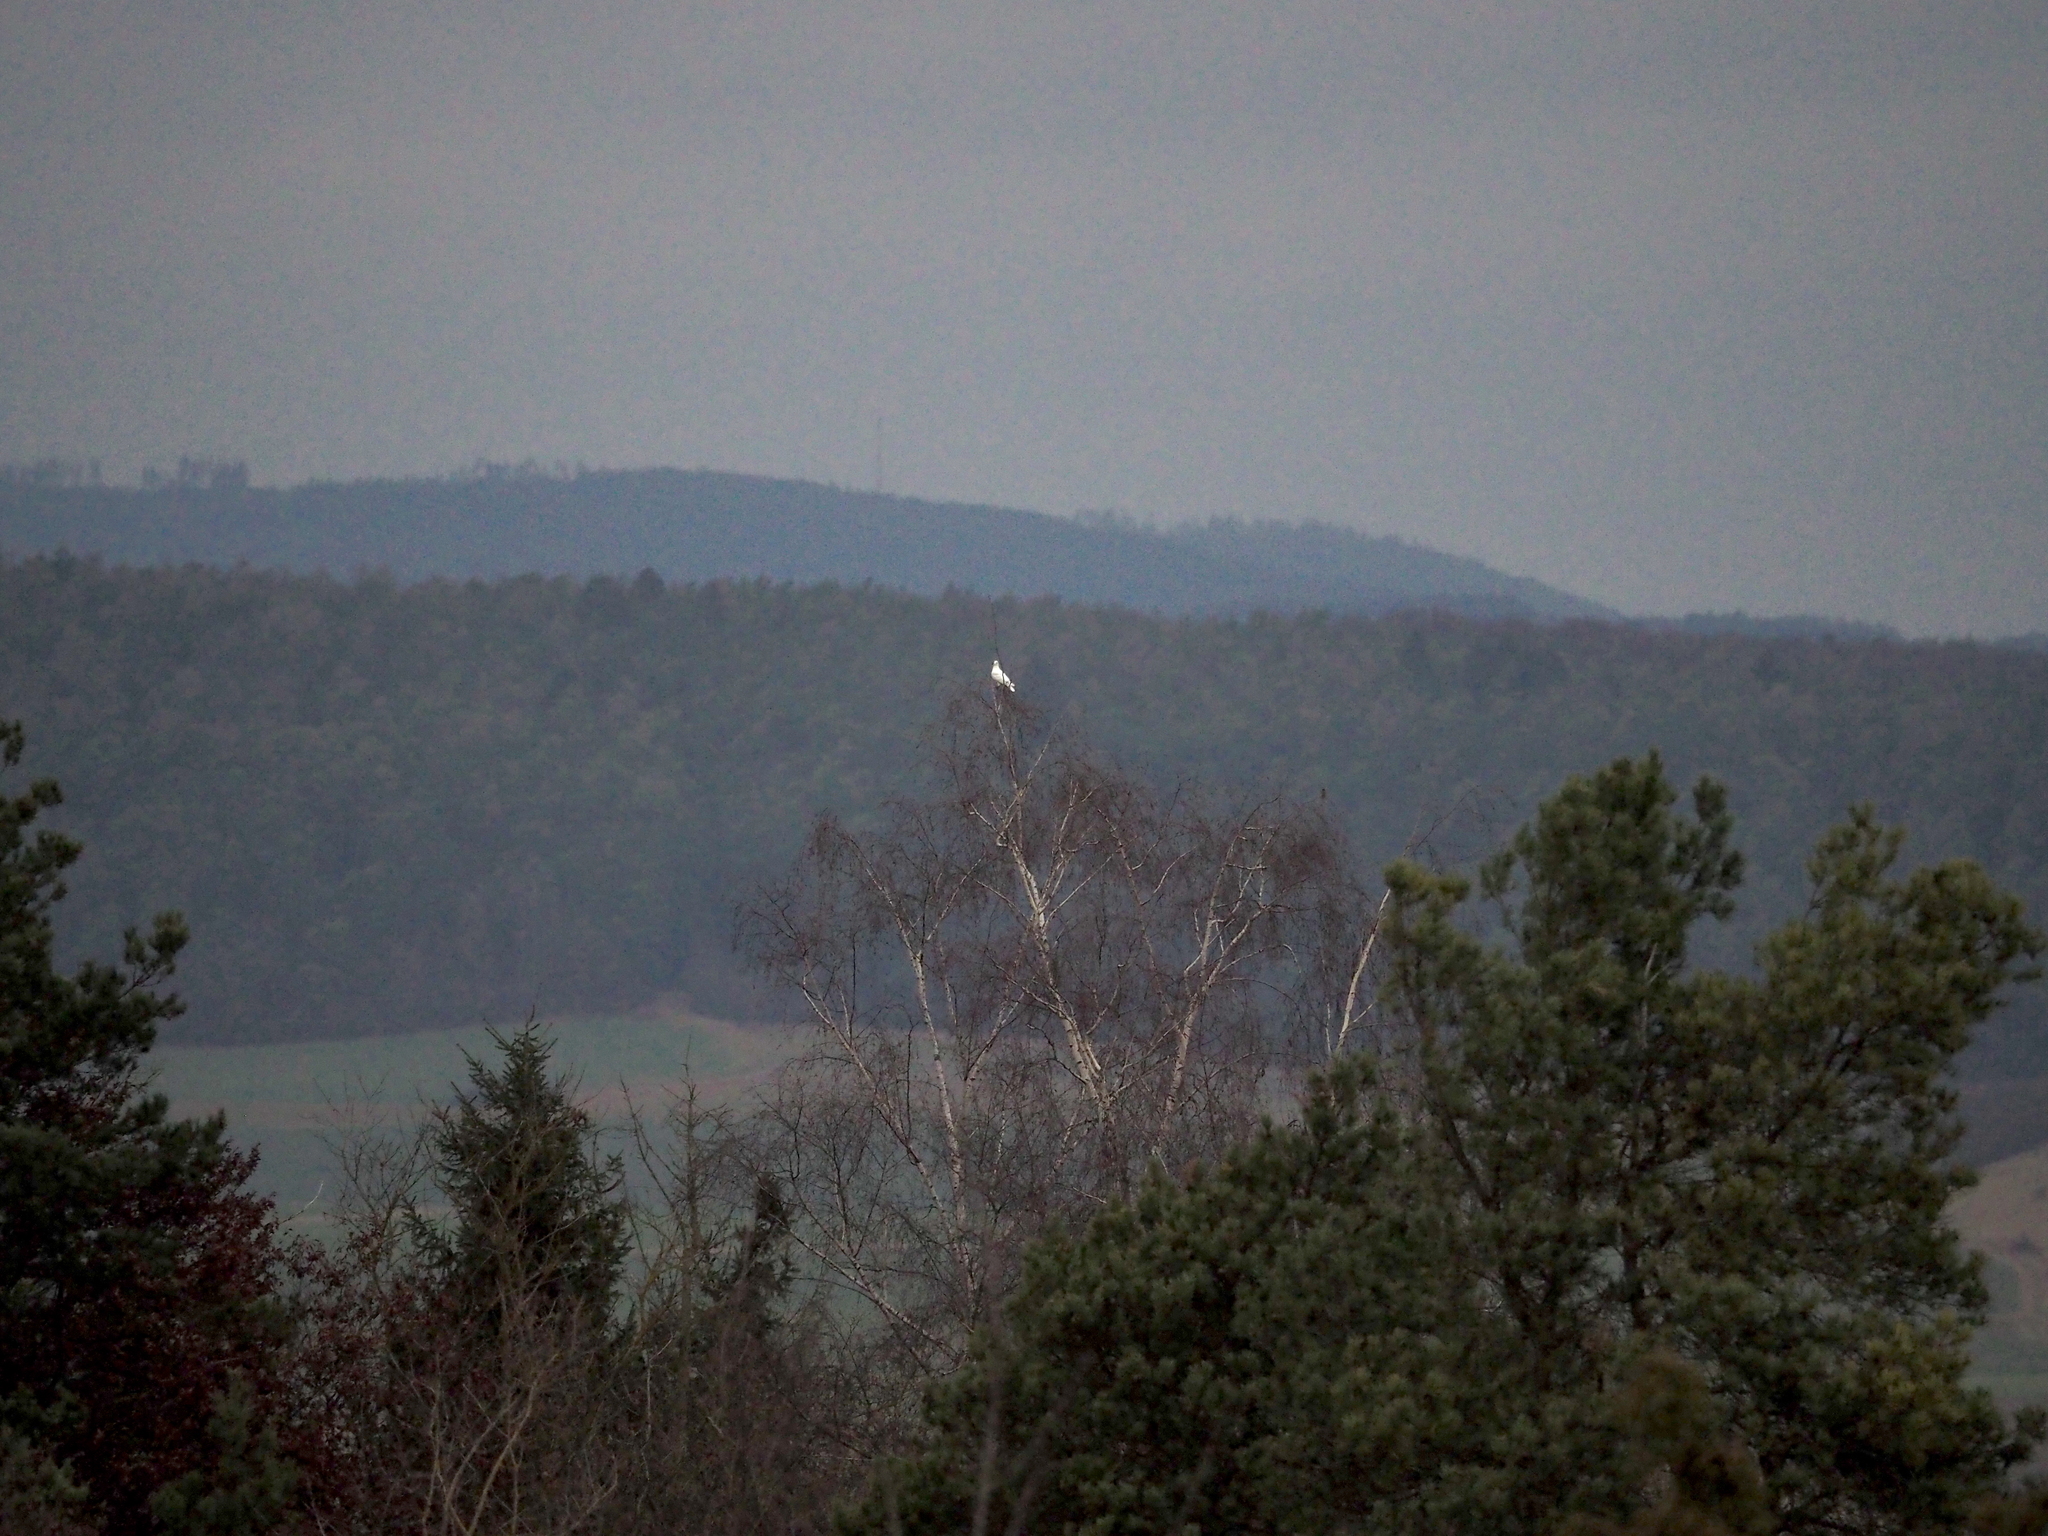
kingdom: Animalia
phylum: Chordata
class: Aves
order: Columbiformes
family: Columbidae
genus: Columba
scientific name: Columba livia
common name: Rock pigeon
